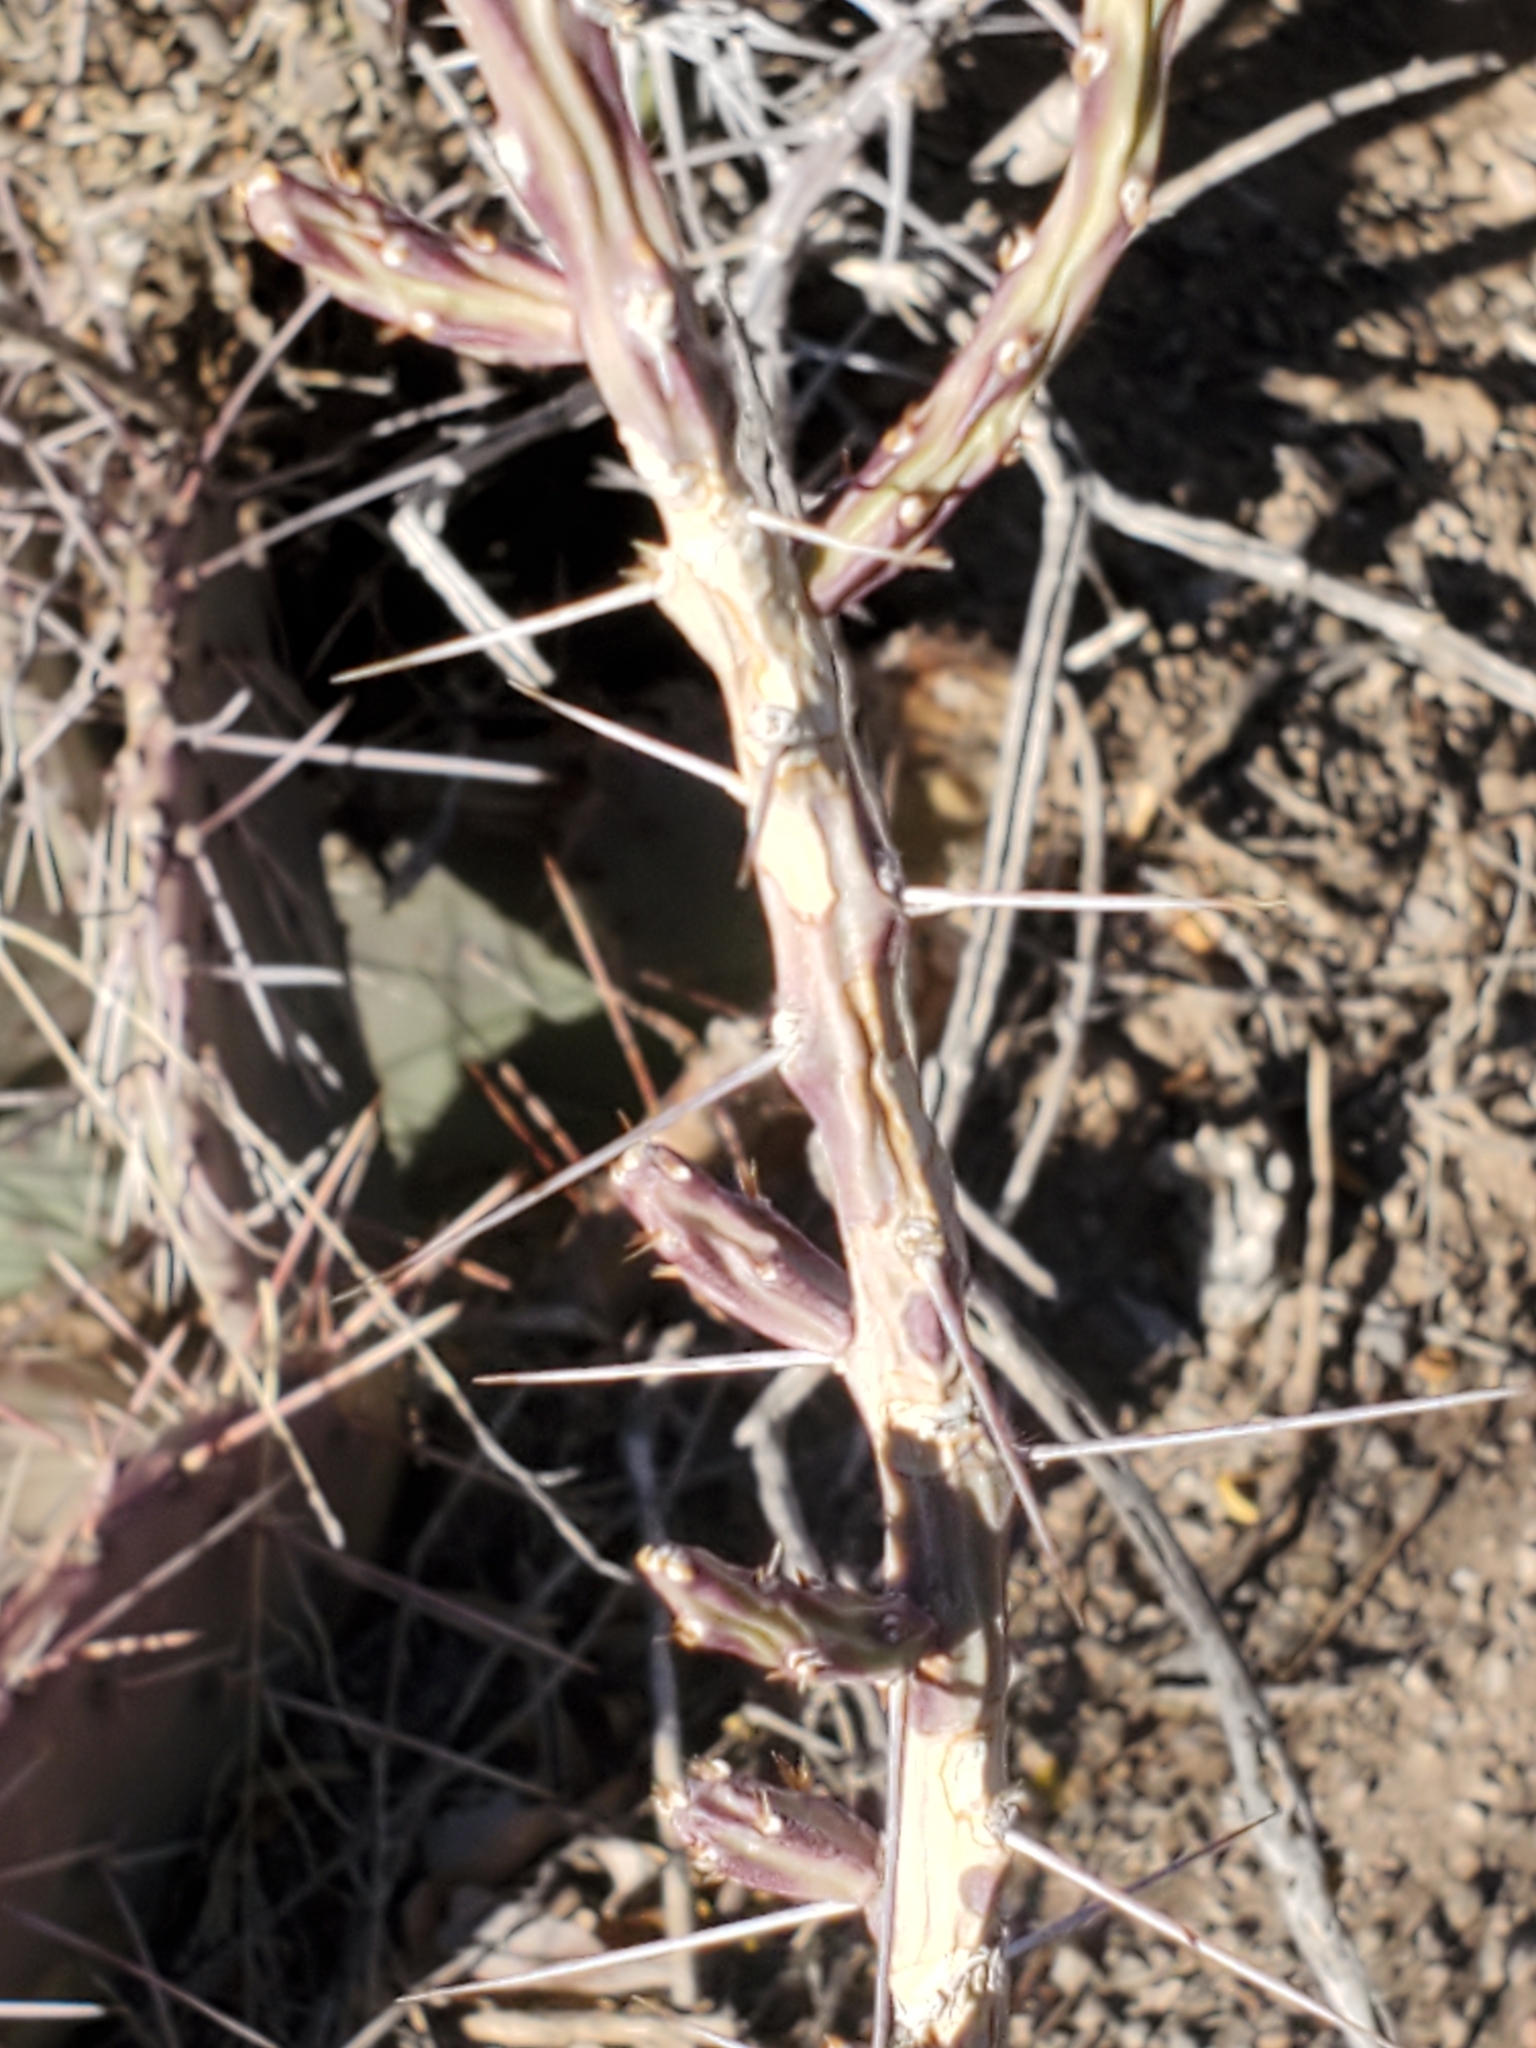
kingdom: Plantae
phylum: Tracheophyta
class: Magnoliopsida
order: Caryophyllales
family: Cactaceae
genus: Cylindropuntia
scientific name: Cylindropuntia leptocaulis
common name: Christmas cactus
